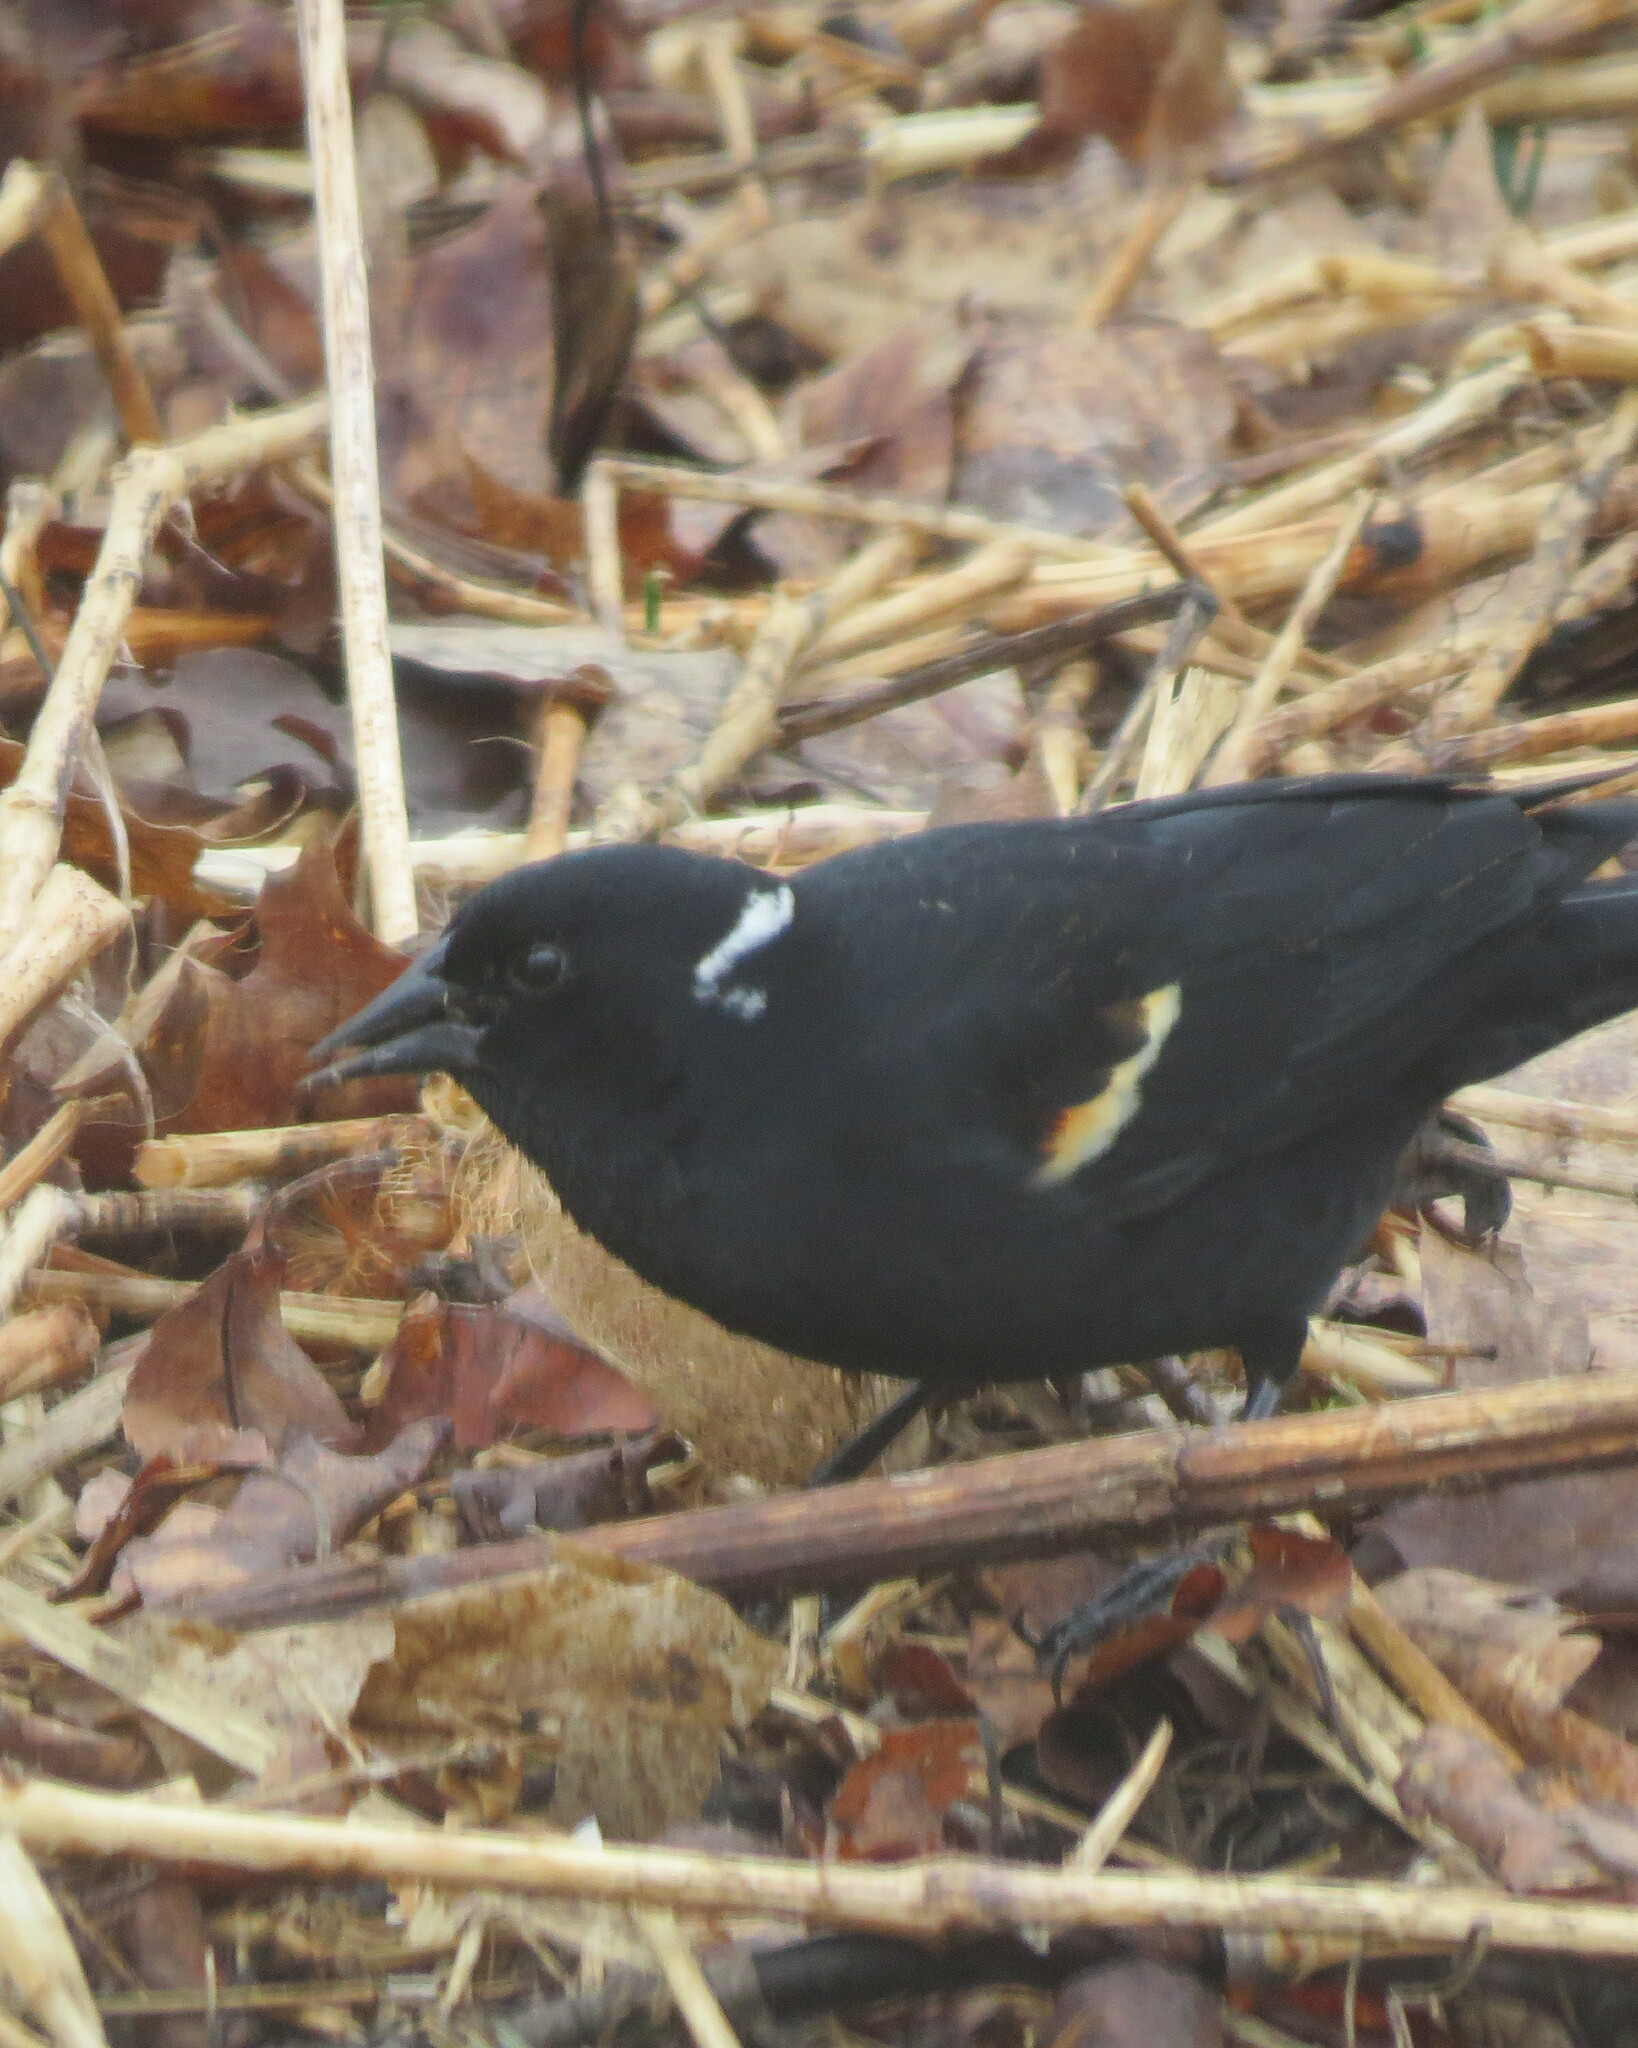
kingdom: Animalia
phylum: Chordata
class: Aves
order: Passeriformes
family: Icteridae
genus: Agelaius
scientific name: Agelaius phoeniceus
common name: Red-winged blackbird
